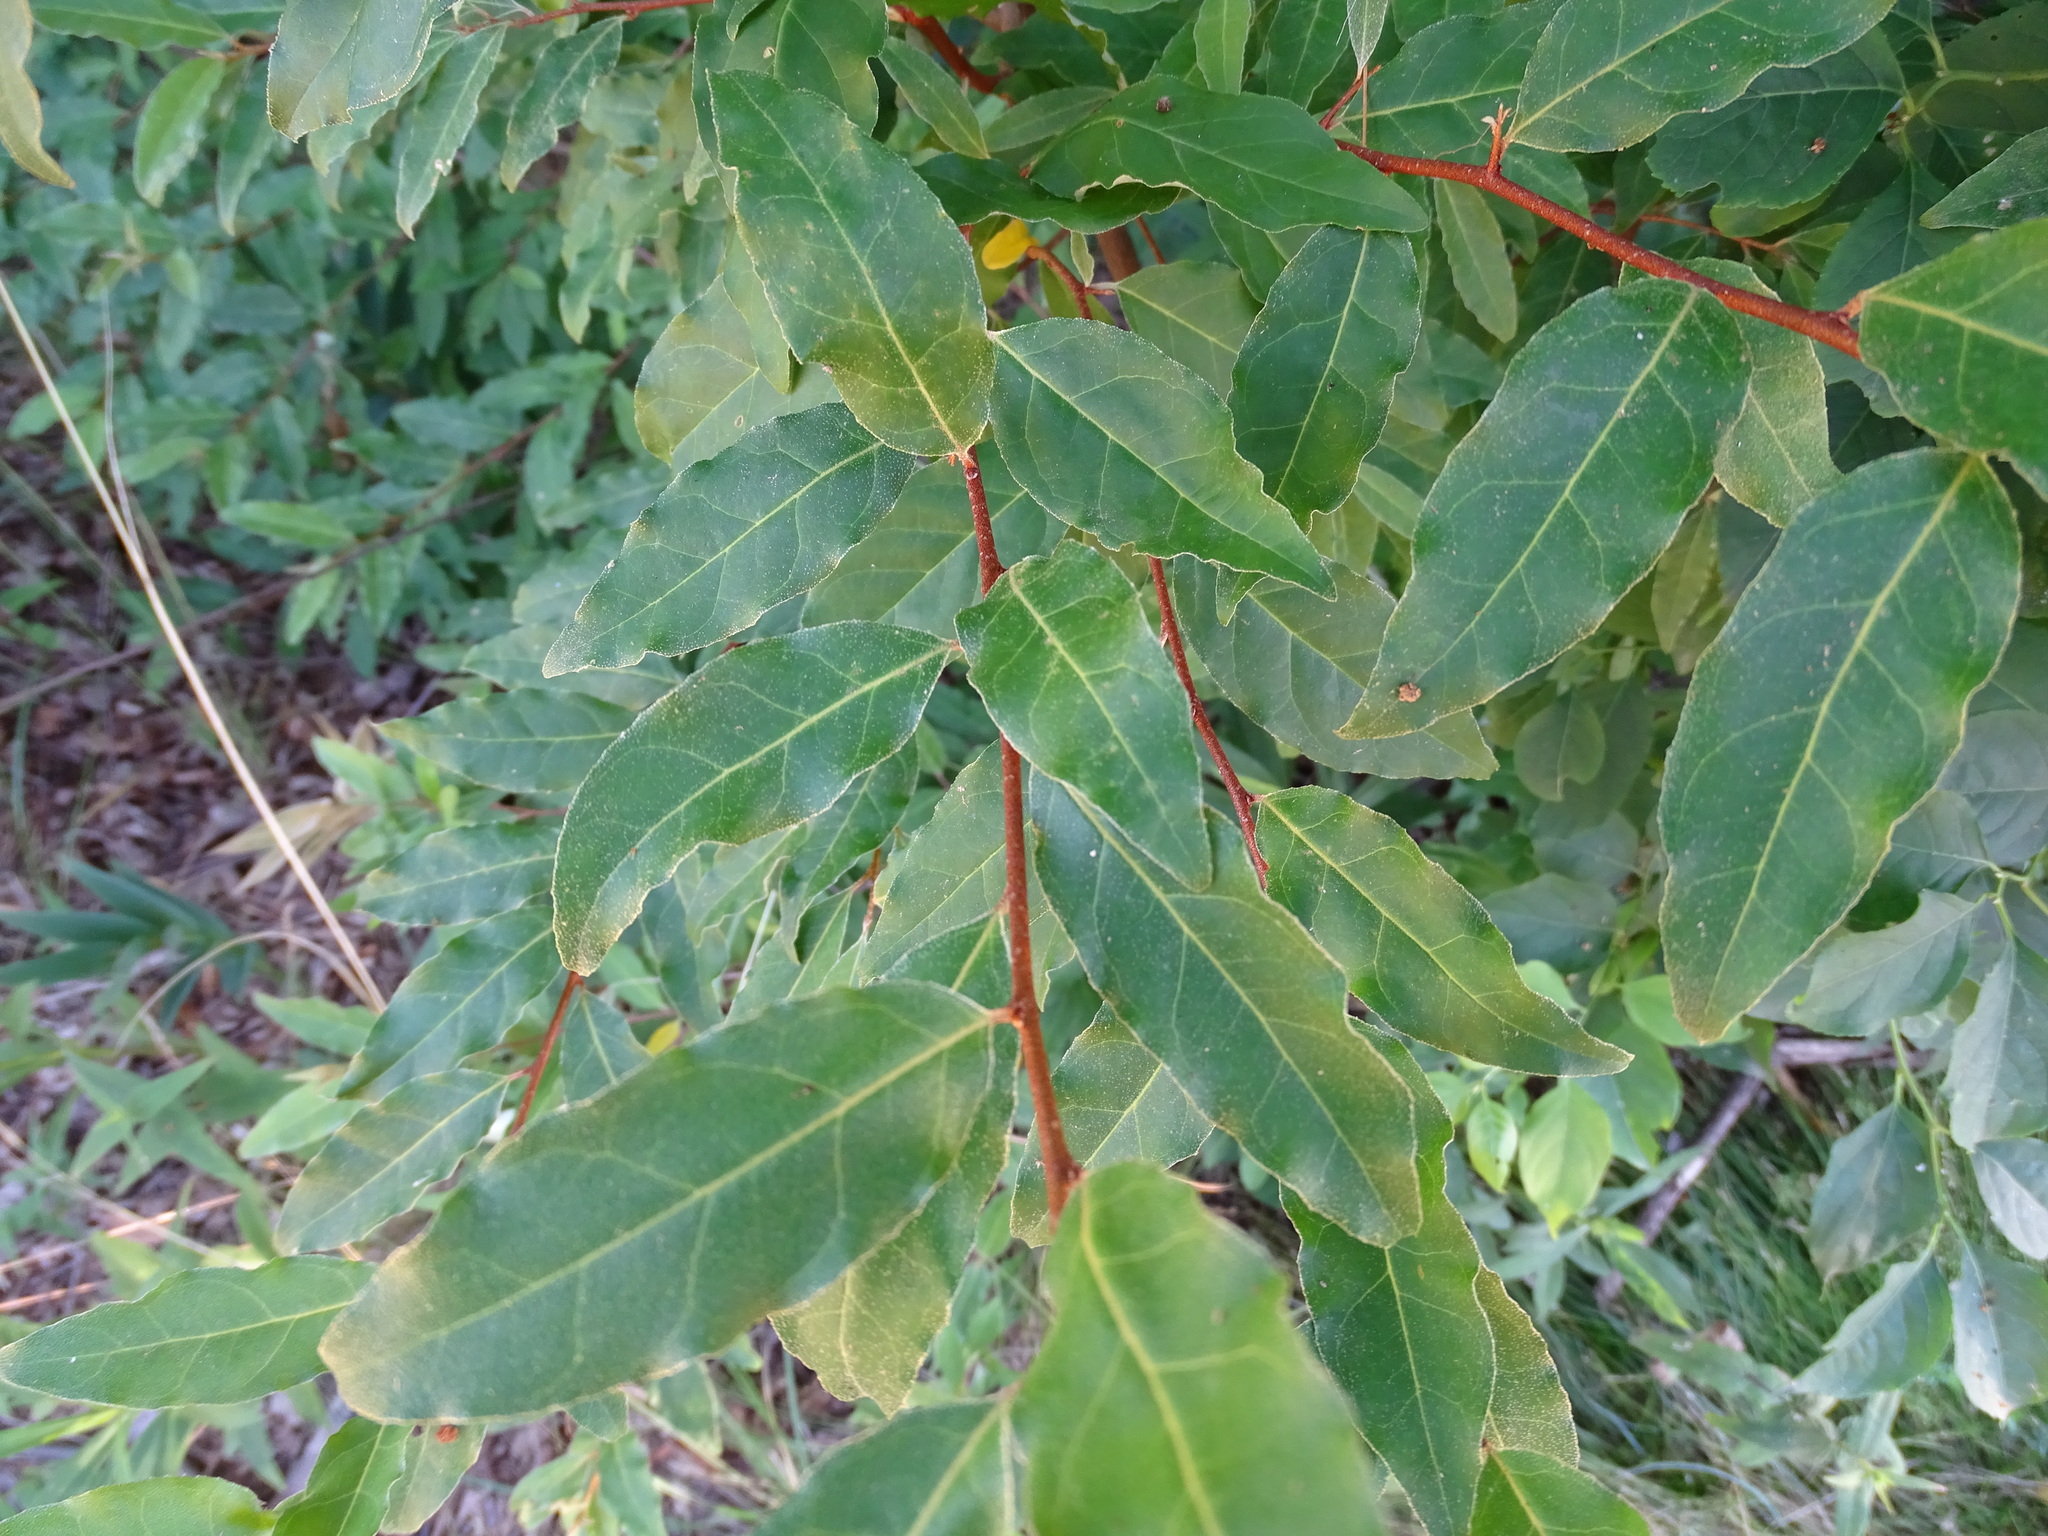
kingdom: Plantae
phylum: Tracheophyta
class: Magnoliopsida
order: Rosales
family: Elaeagnaceae
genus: Elaeagnus
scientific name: Elaeagnus umbellata
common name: Autumn olive
